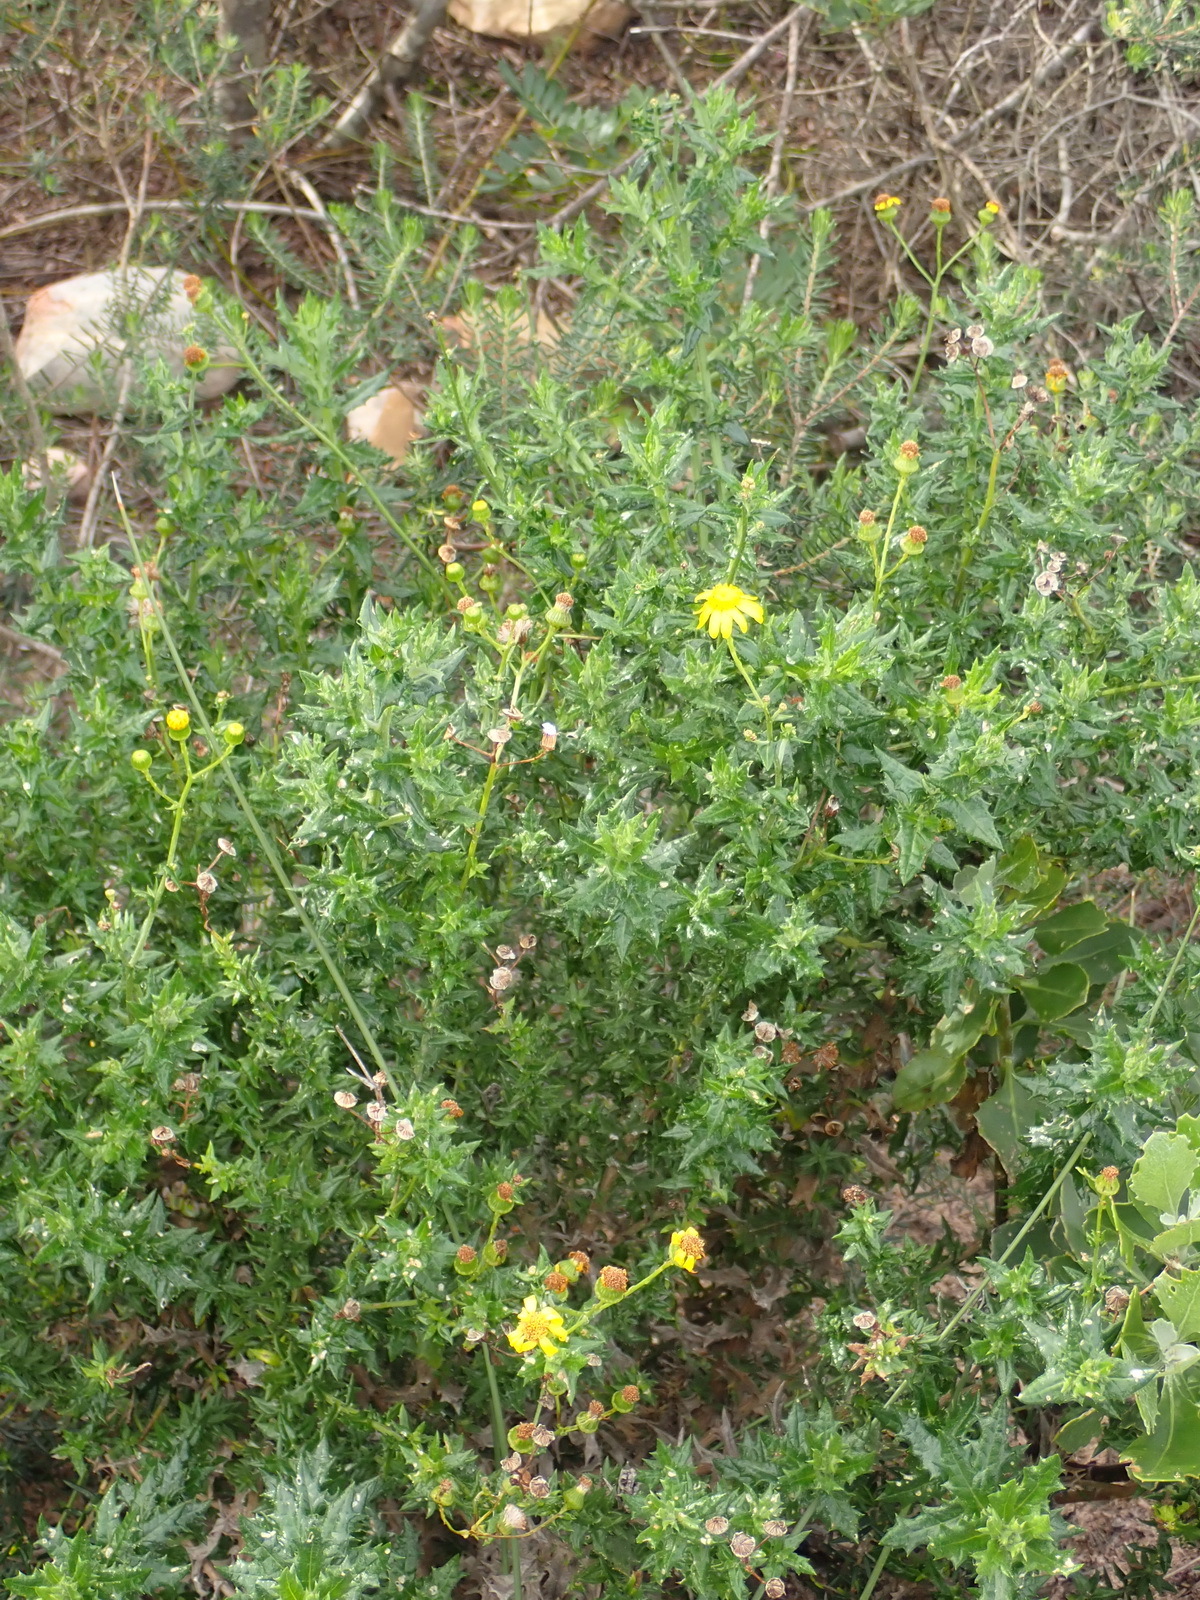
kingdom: Plantae
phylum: Tracheophyta
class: Magnoliopsida
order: Asterales
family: Asteraceae
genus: Senecio
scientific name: Senecio ilicifolius
